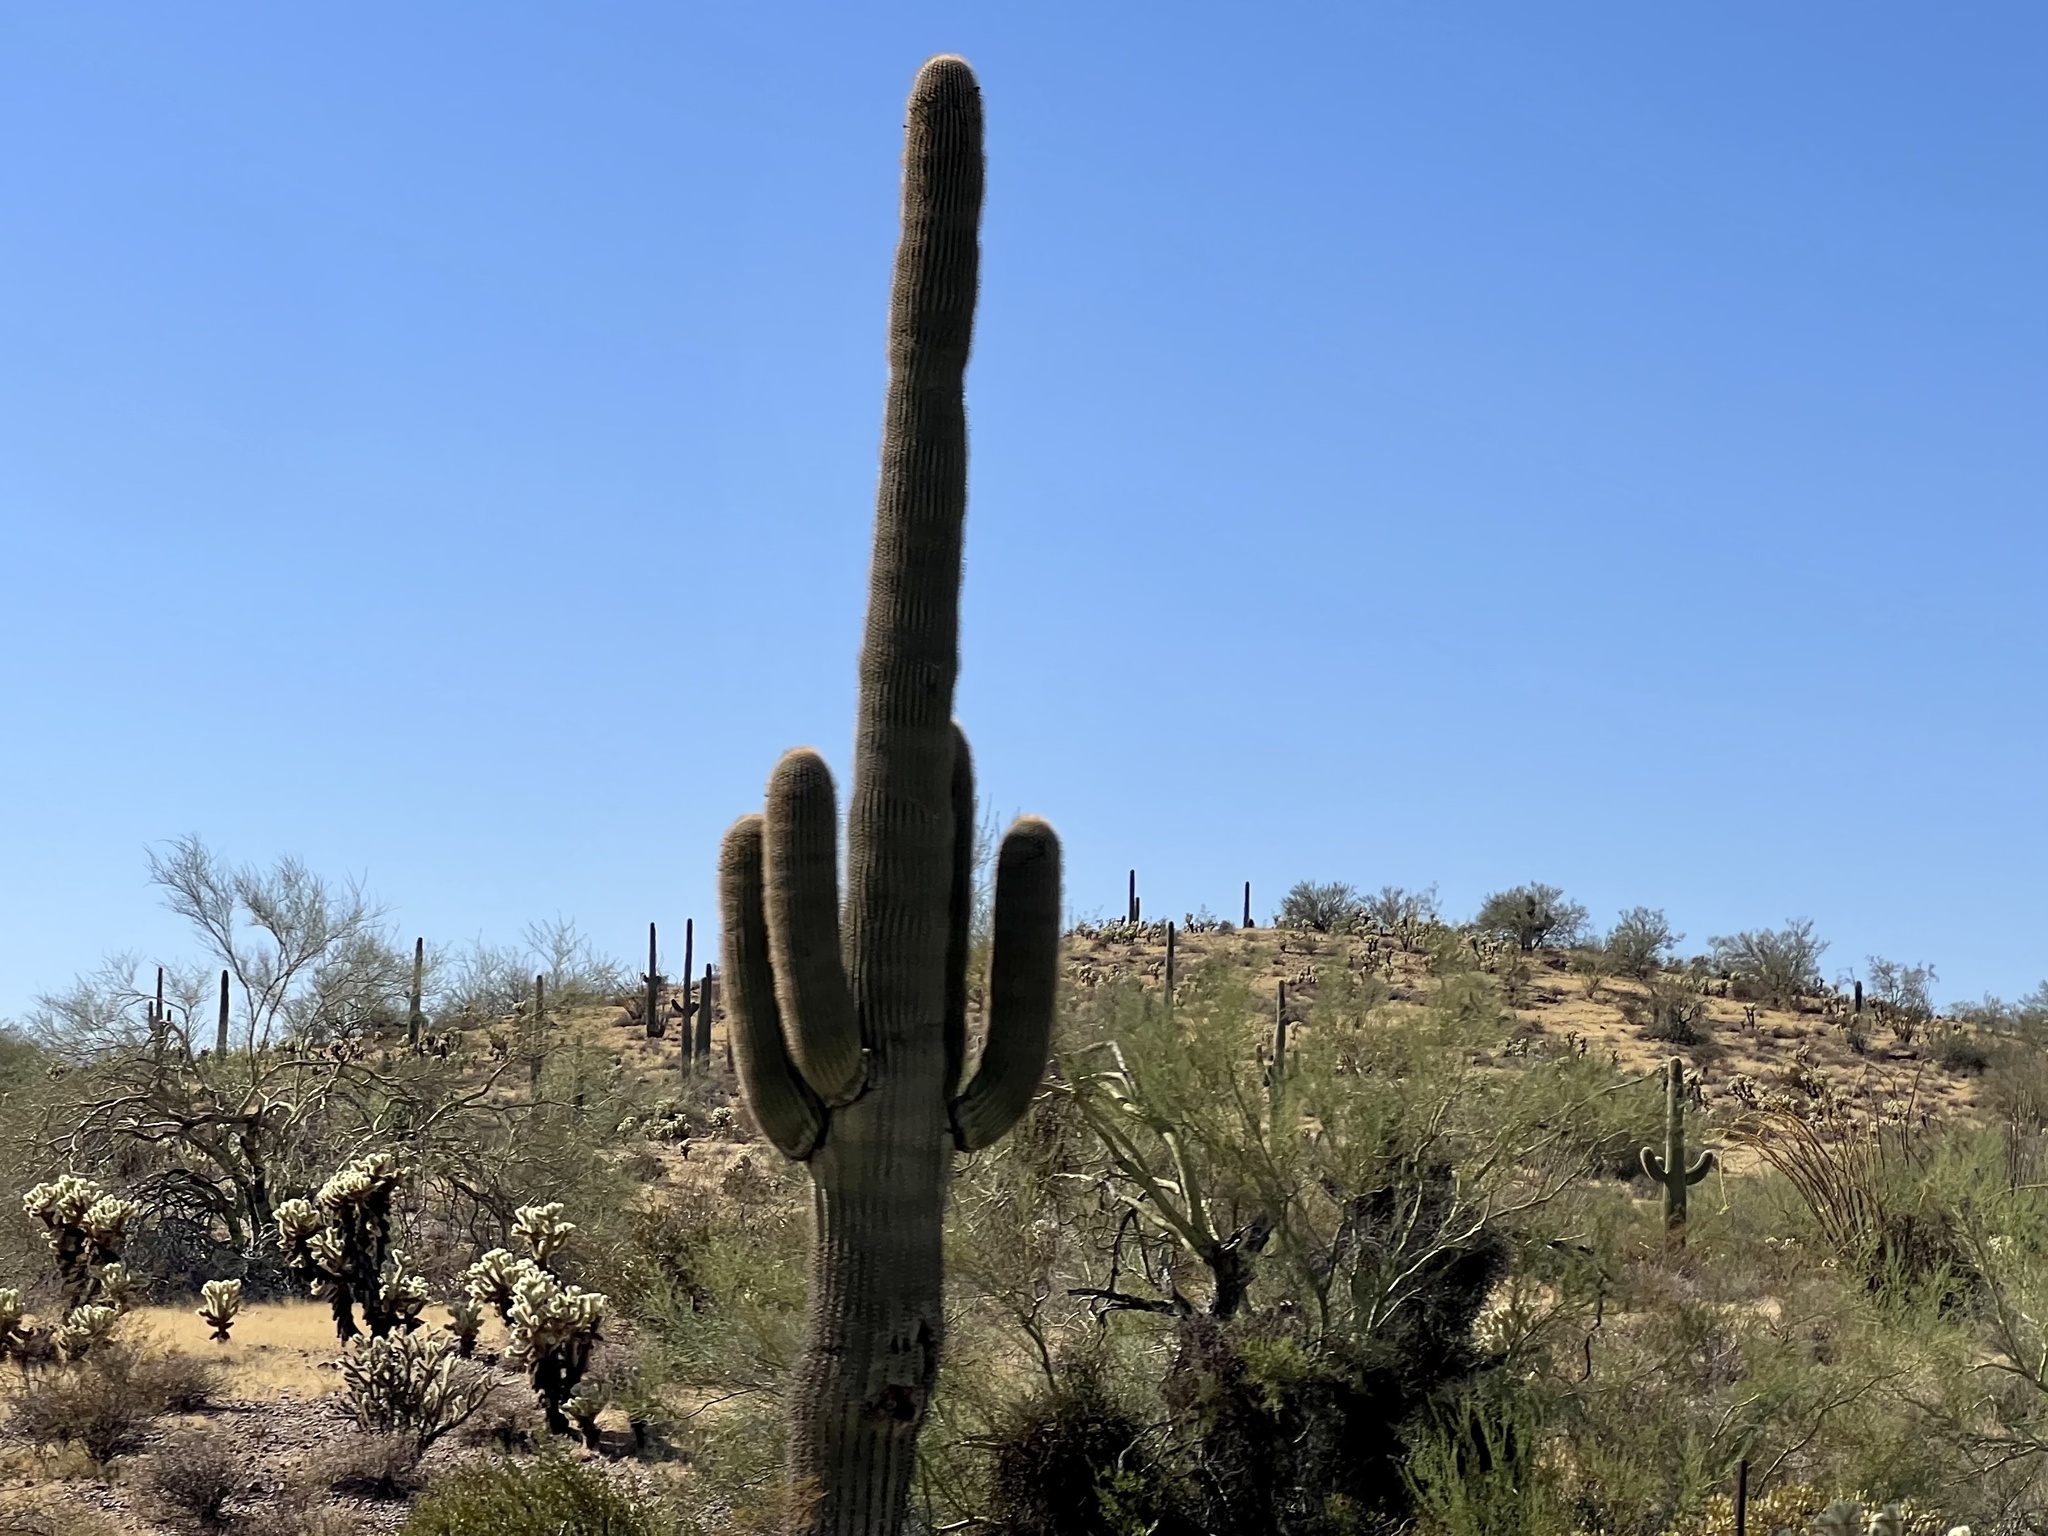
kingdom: Plantae
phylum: Tracheophyta
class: Magnoliopsida
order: Caryophyllales
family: Cactaceae
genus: Carnegiea
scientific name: Carnegiea gigantea
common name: Saguaro
